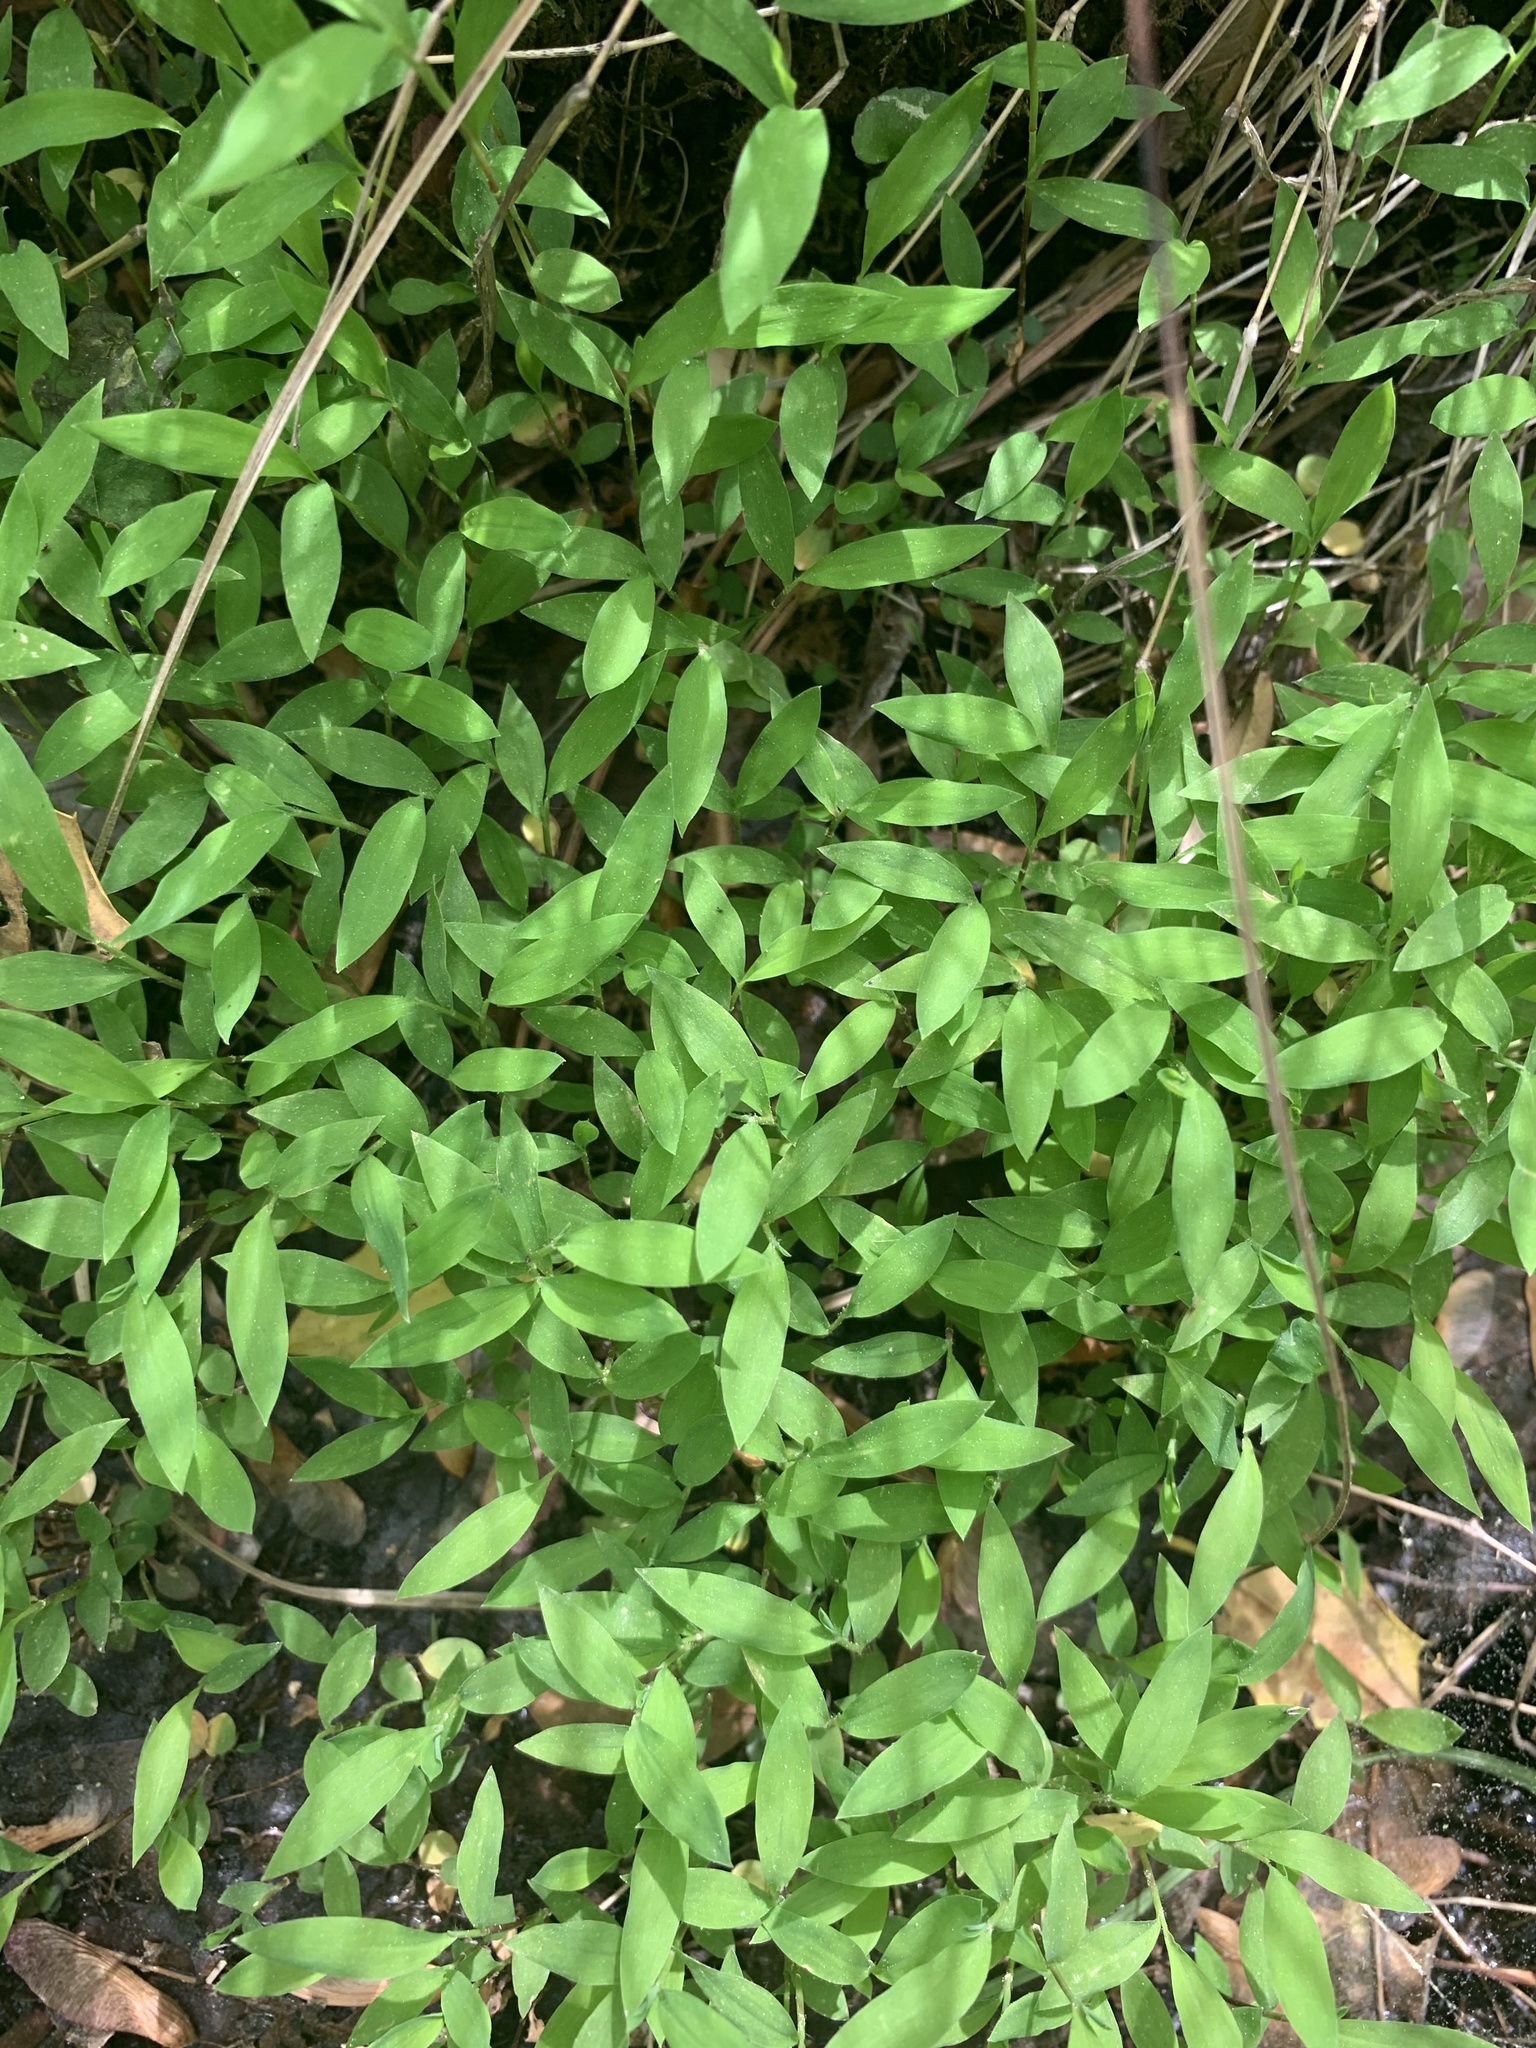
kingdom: Plantae
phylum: Tracheophyta
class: Liliopsida
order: Poales
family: Poaceae
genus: Microstegium
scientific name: Microstegium vimineum
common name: Japanese stiltgrass
